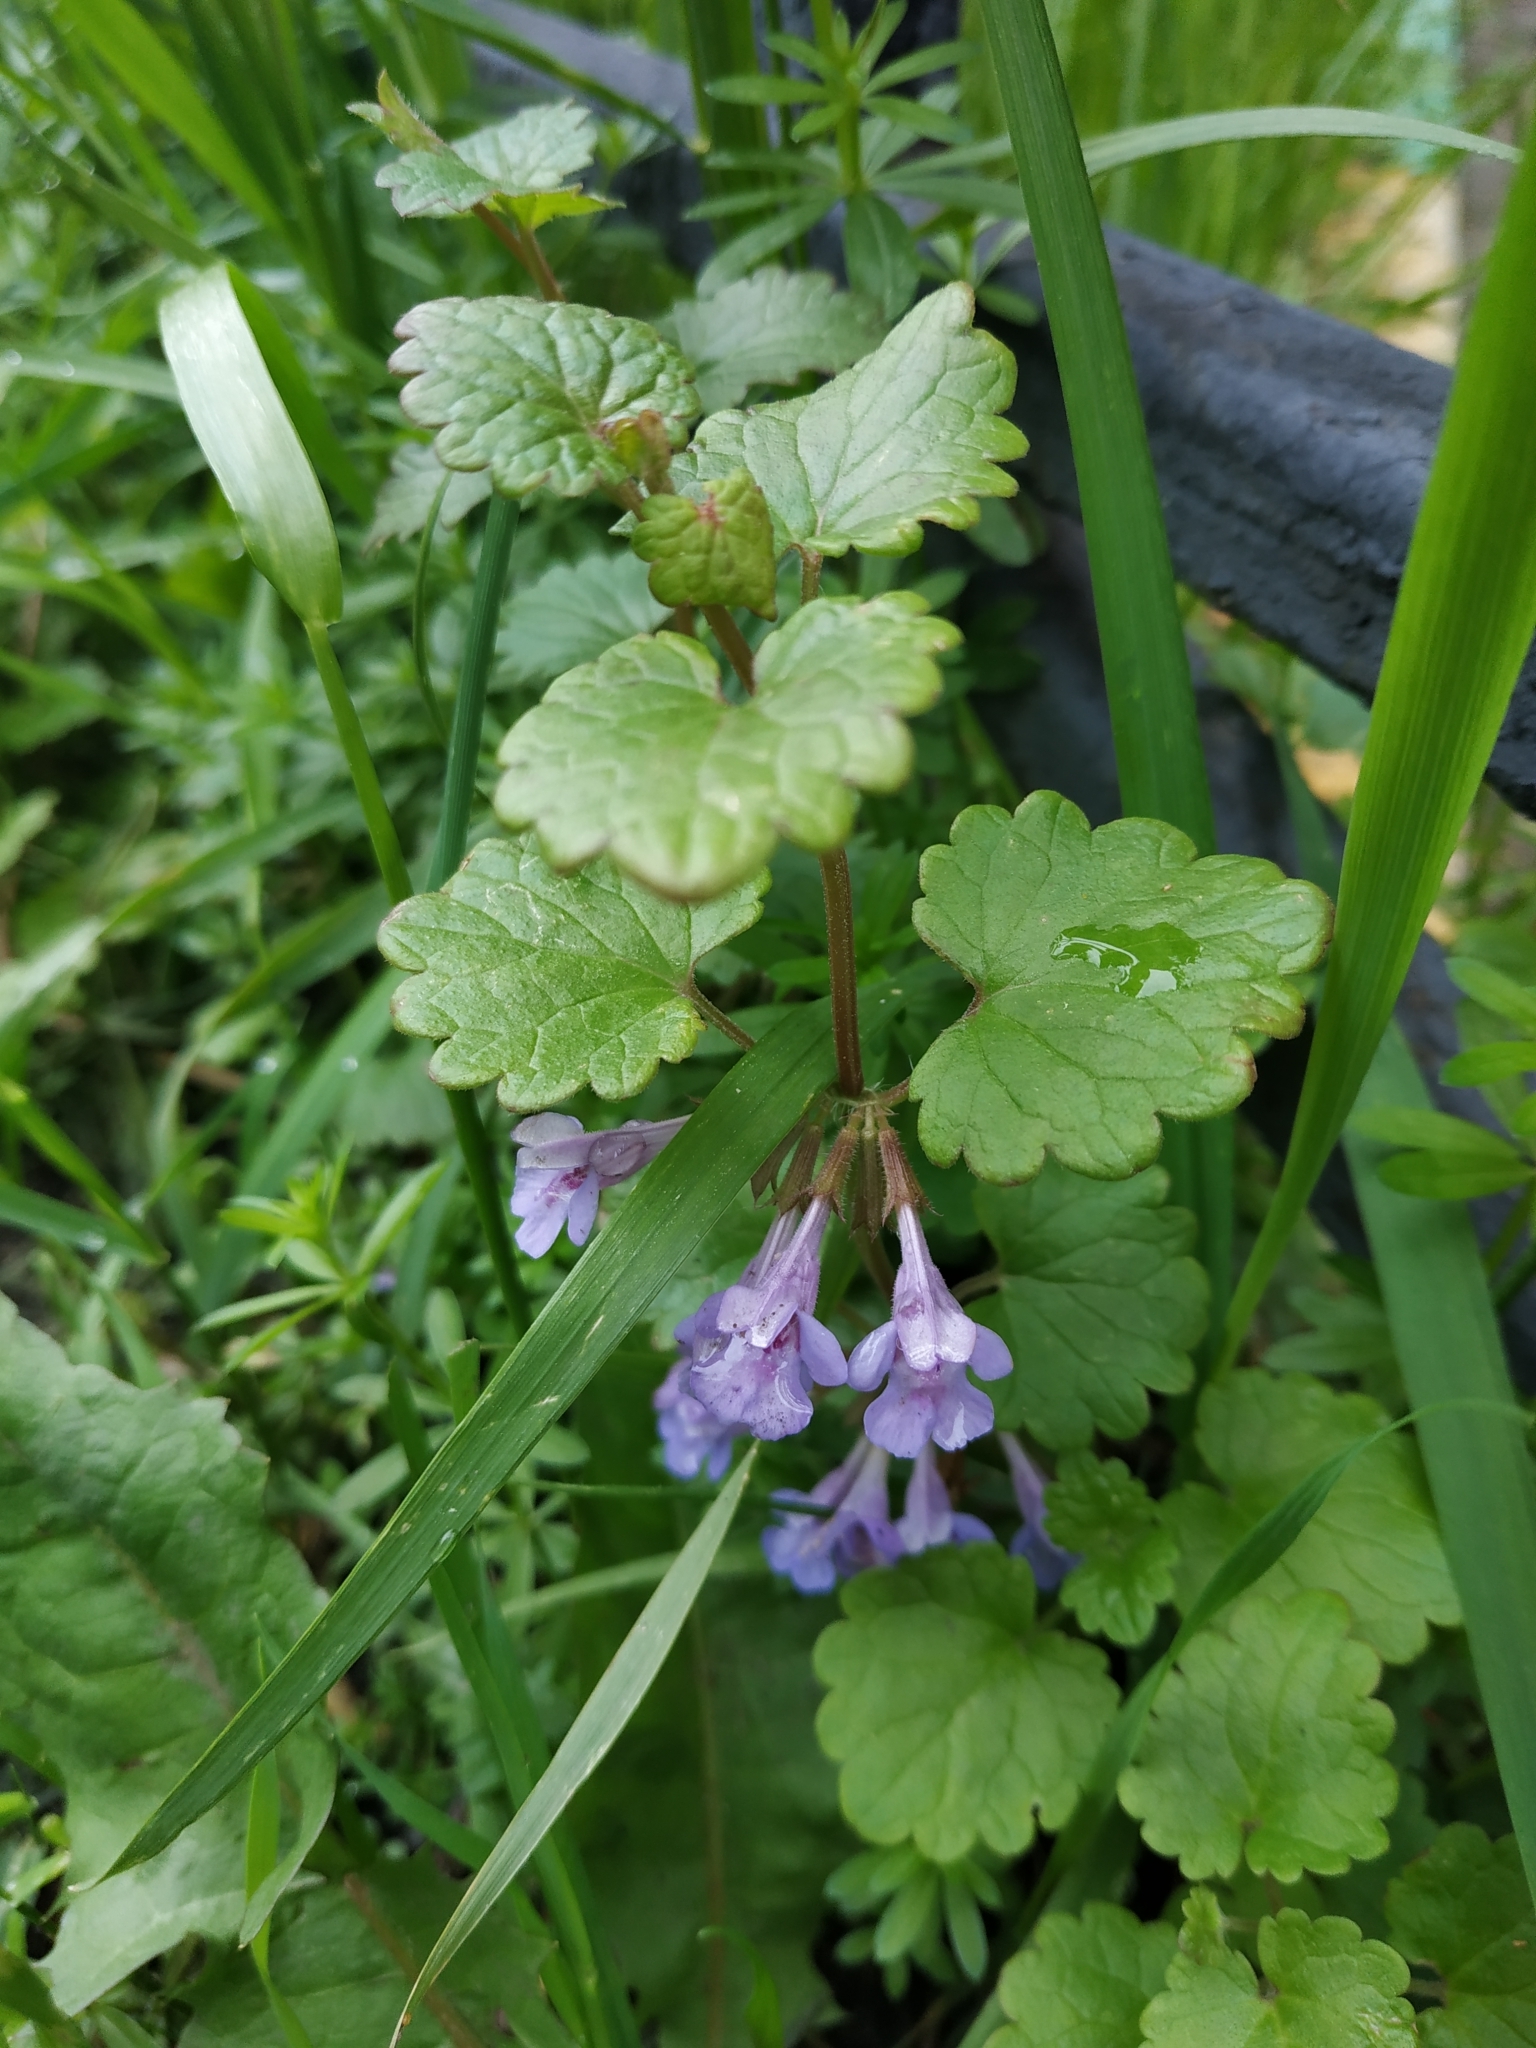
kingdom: Plantae
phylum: Tracheophyta
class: Magnoliopsida
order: Lamiales
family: Lamiaceae
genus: Glechoma
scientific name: Glechoma hederacea
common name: Ground ivy
